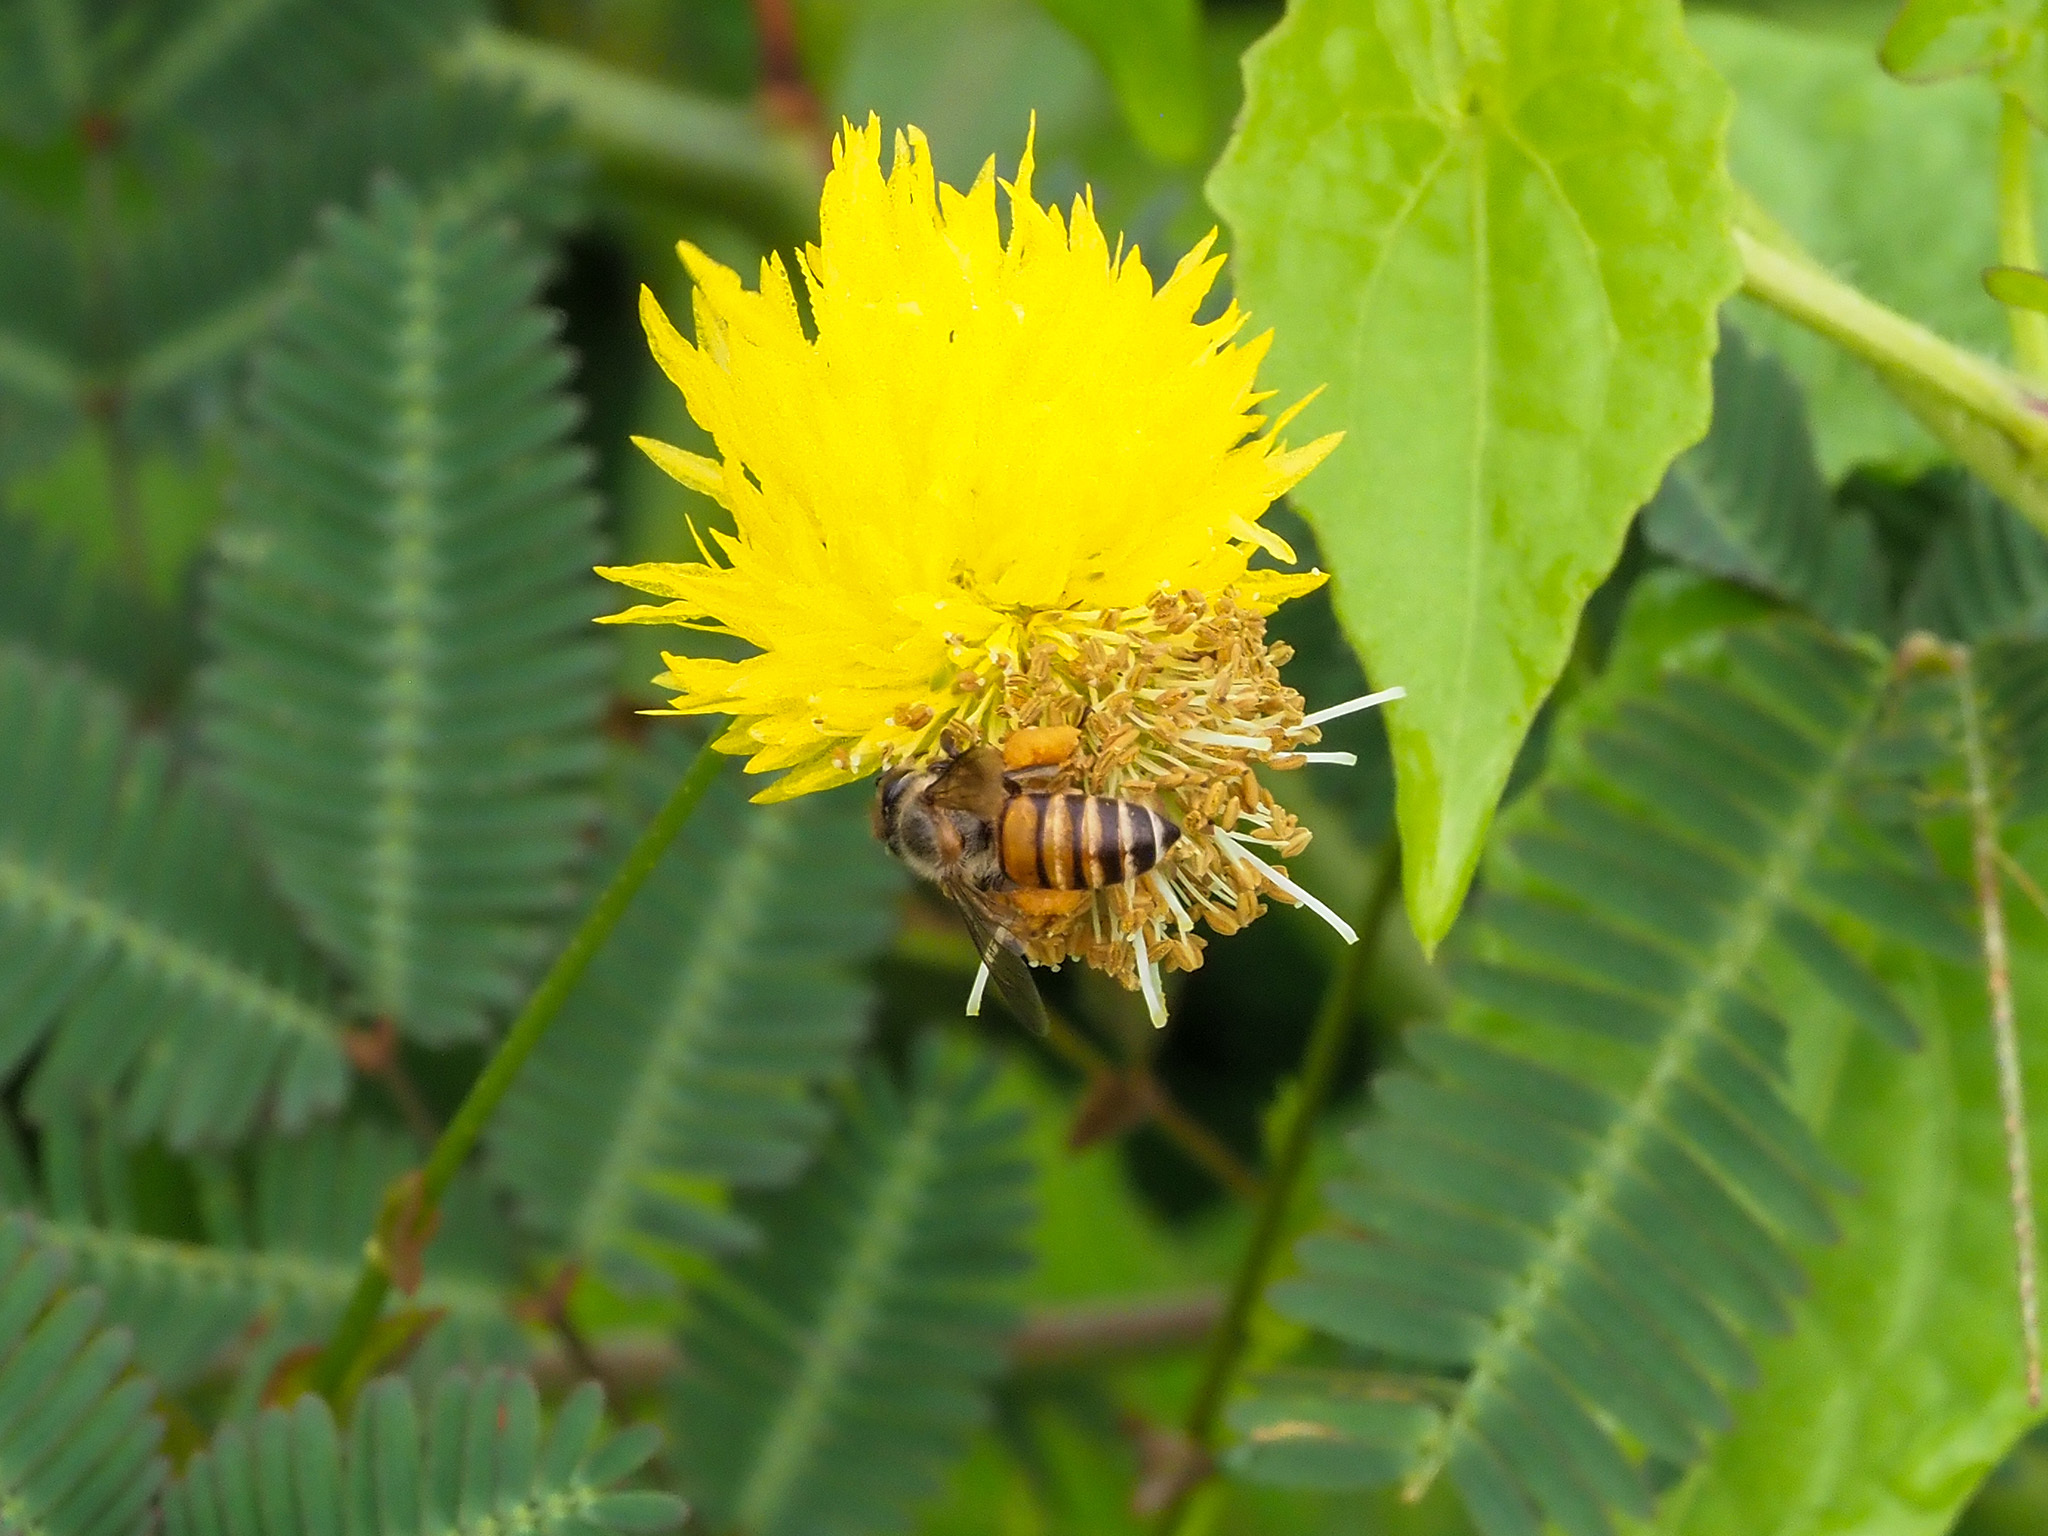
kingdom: Animalia
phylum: Arthropoda
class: Insecta
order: Hymenoptera
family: Apidae
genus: Apis
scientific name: Apis cerana
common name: Honey bee
